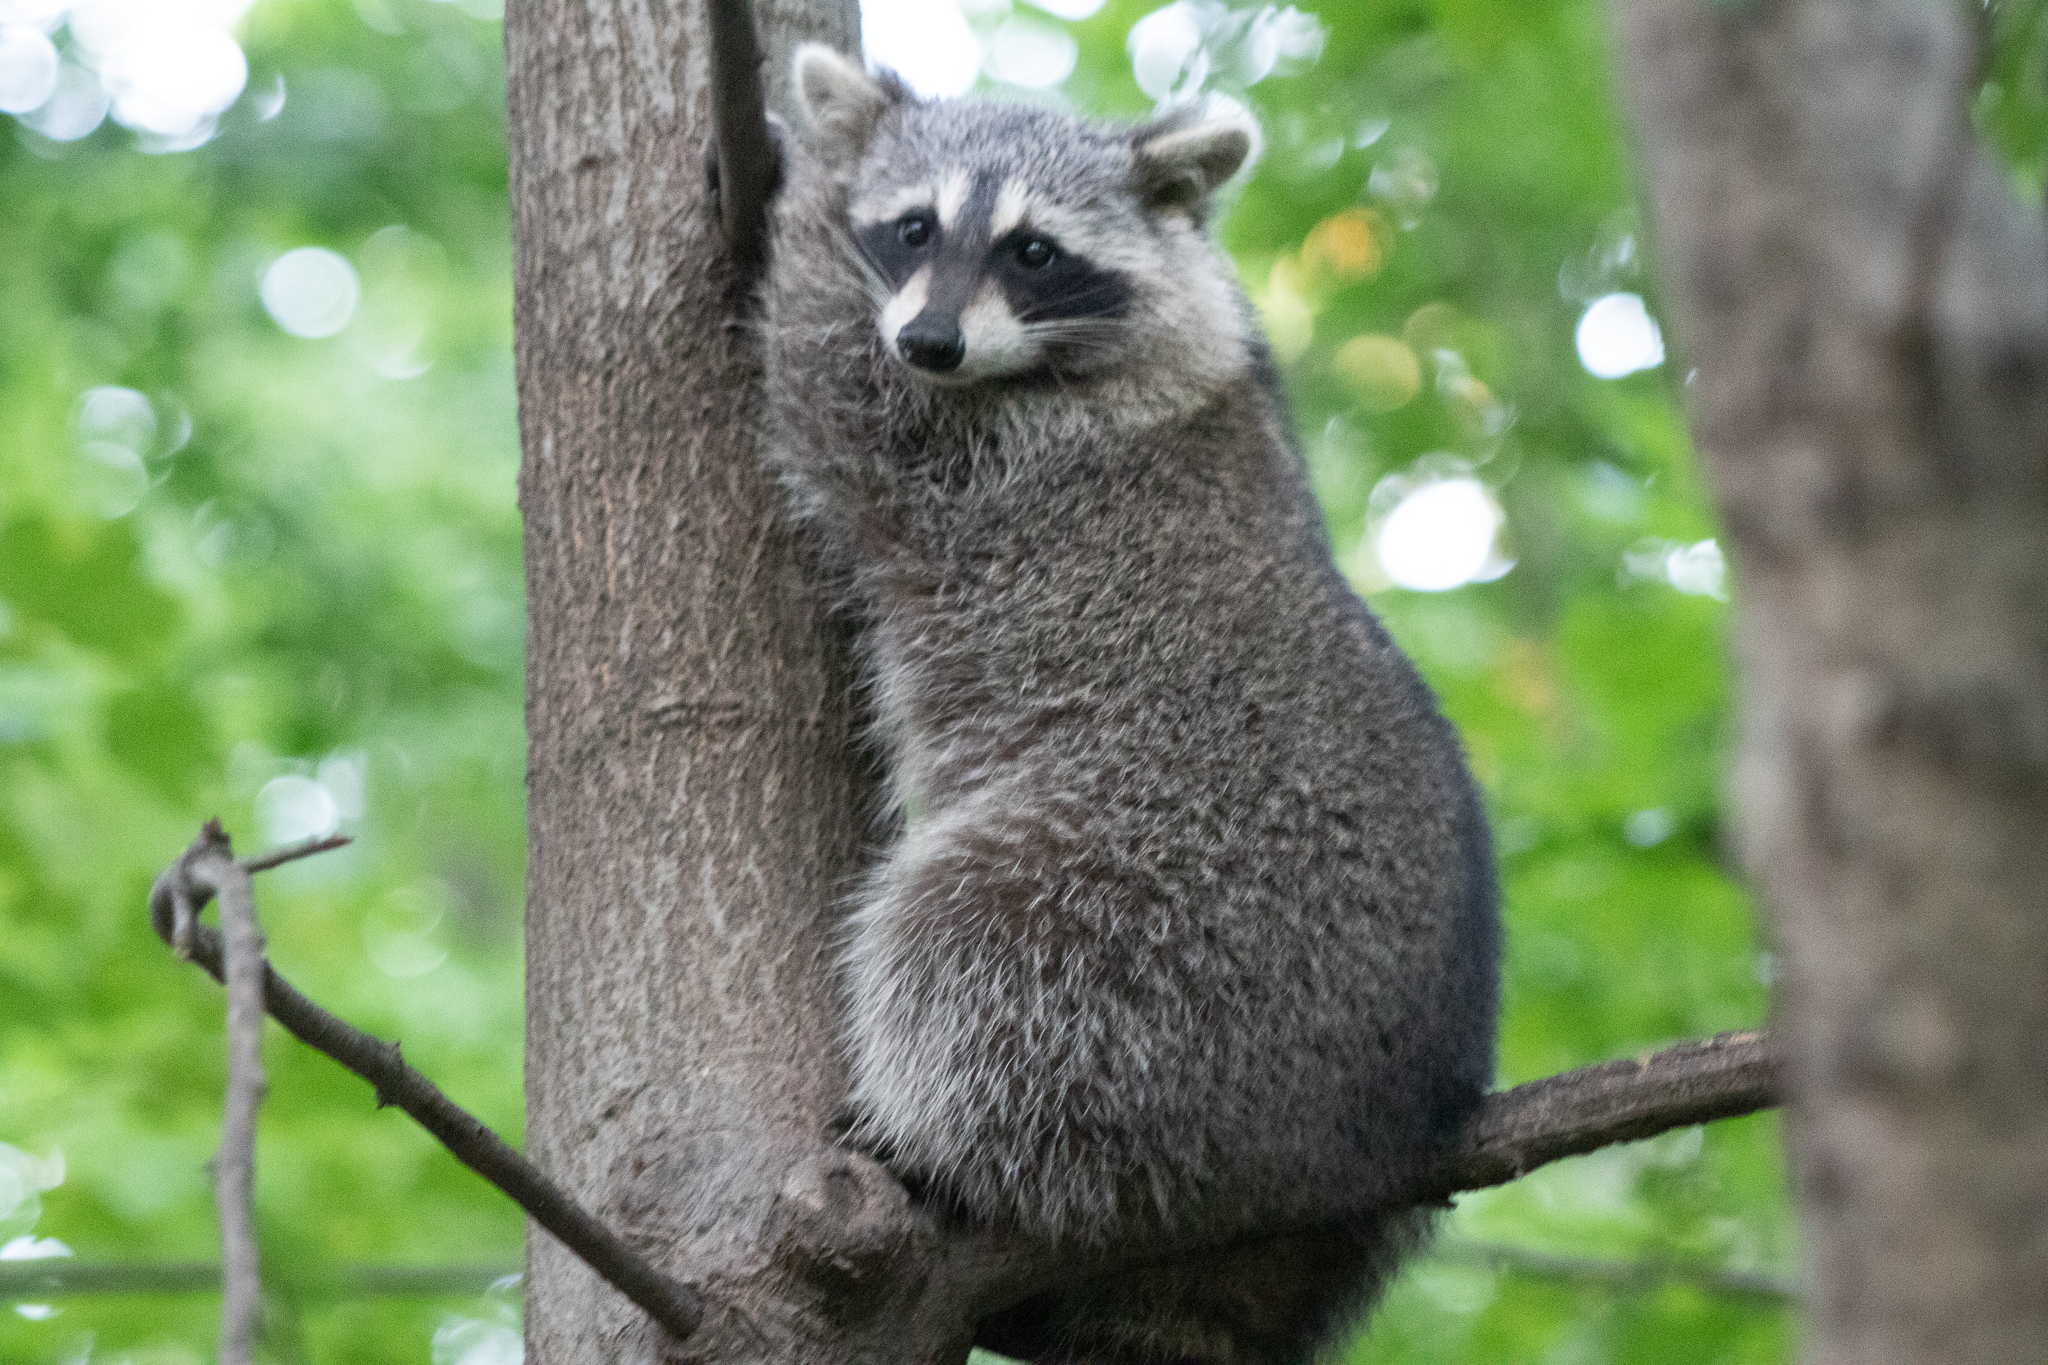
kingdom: Animalia
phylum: Chordata
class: Mammalia
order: Carnivora
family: Procyonidae
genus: Procyon
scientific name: Procyon lotor
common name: Raccoon
